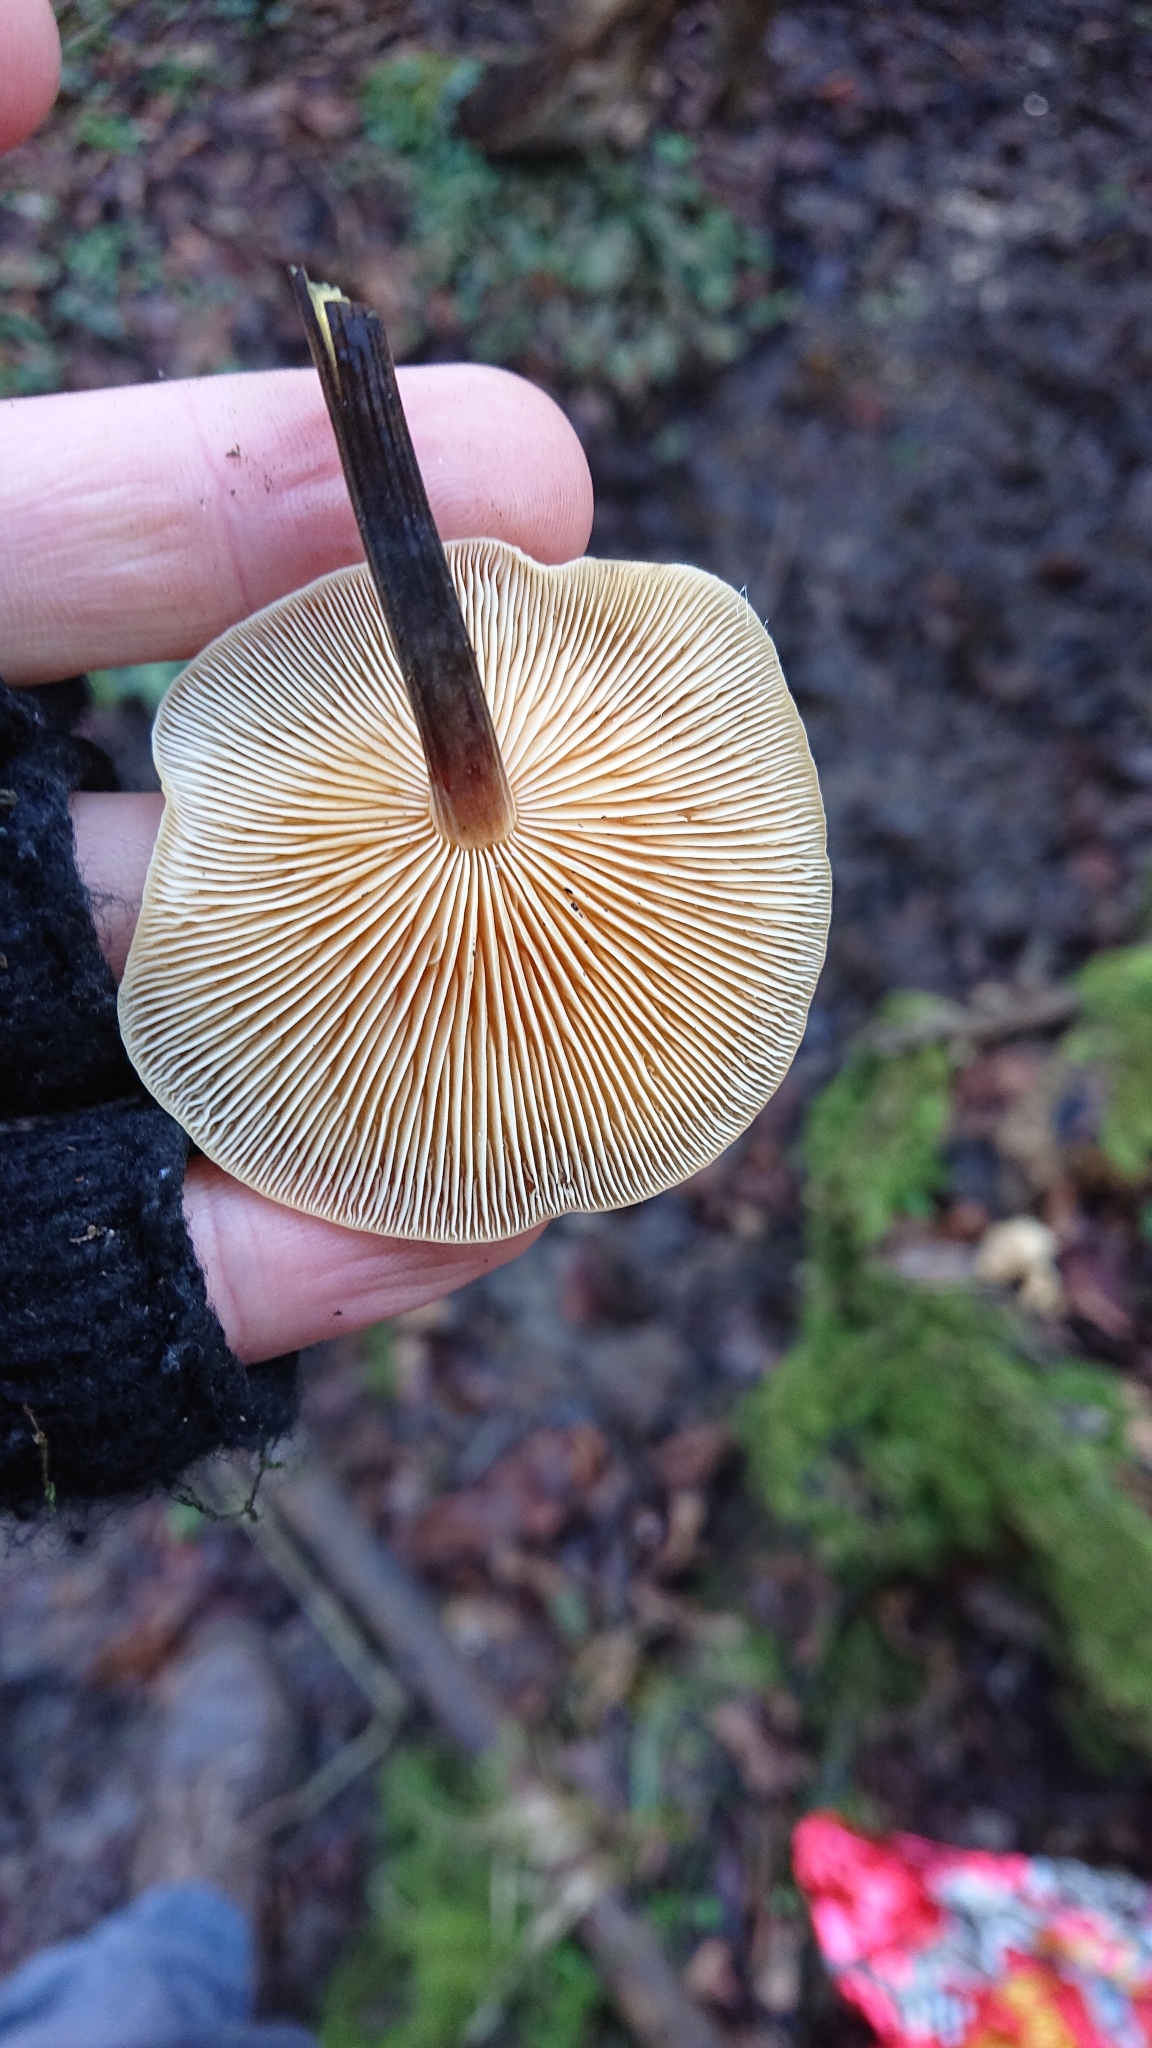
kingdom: Fungi
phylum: Basidiomycota
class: Agaricomycetes
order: Agaricales
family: Physalacriaceae
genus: Flammulina
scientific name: Flammulina
